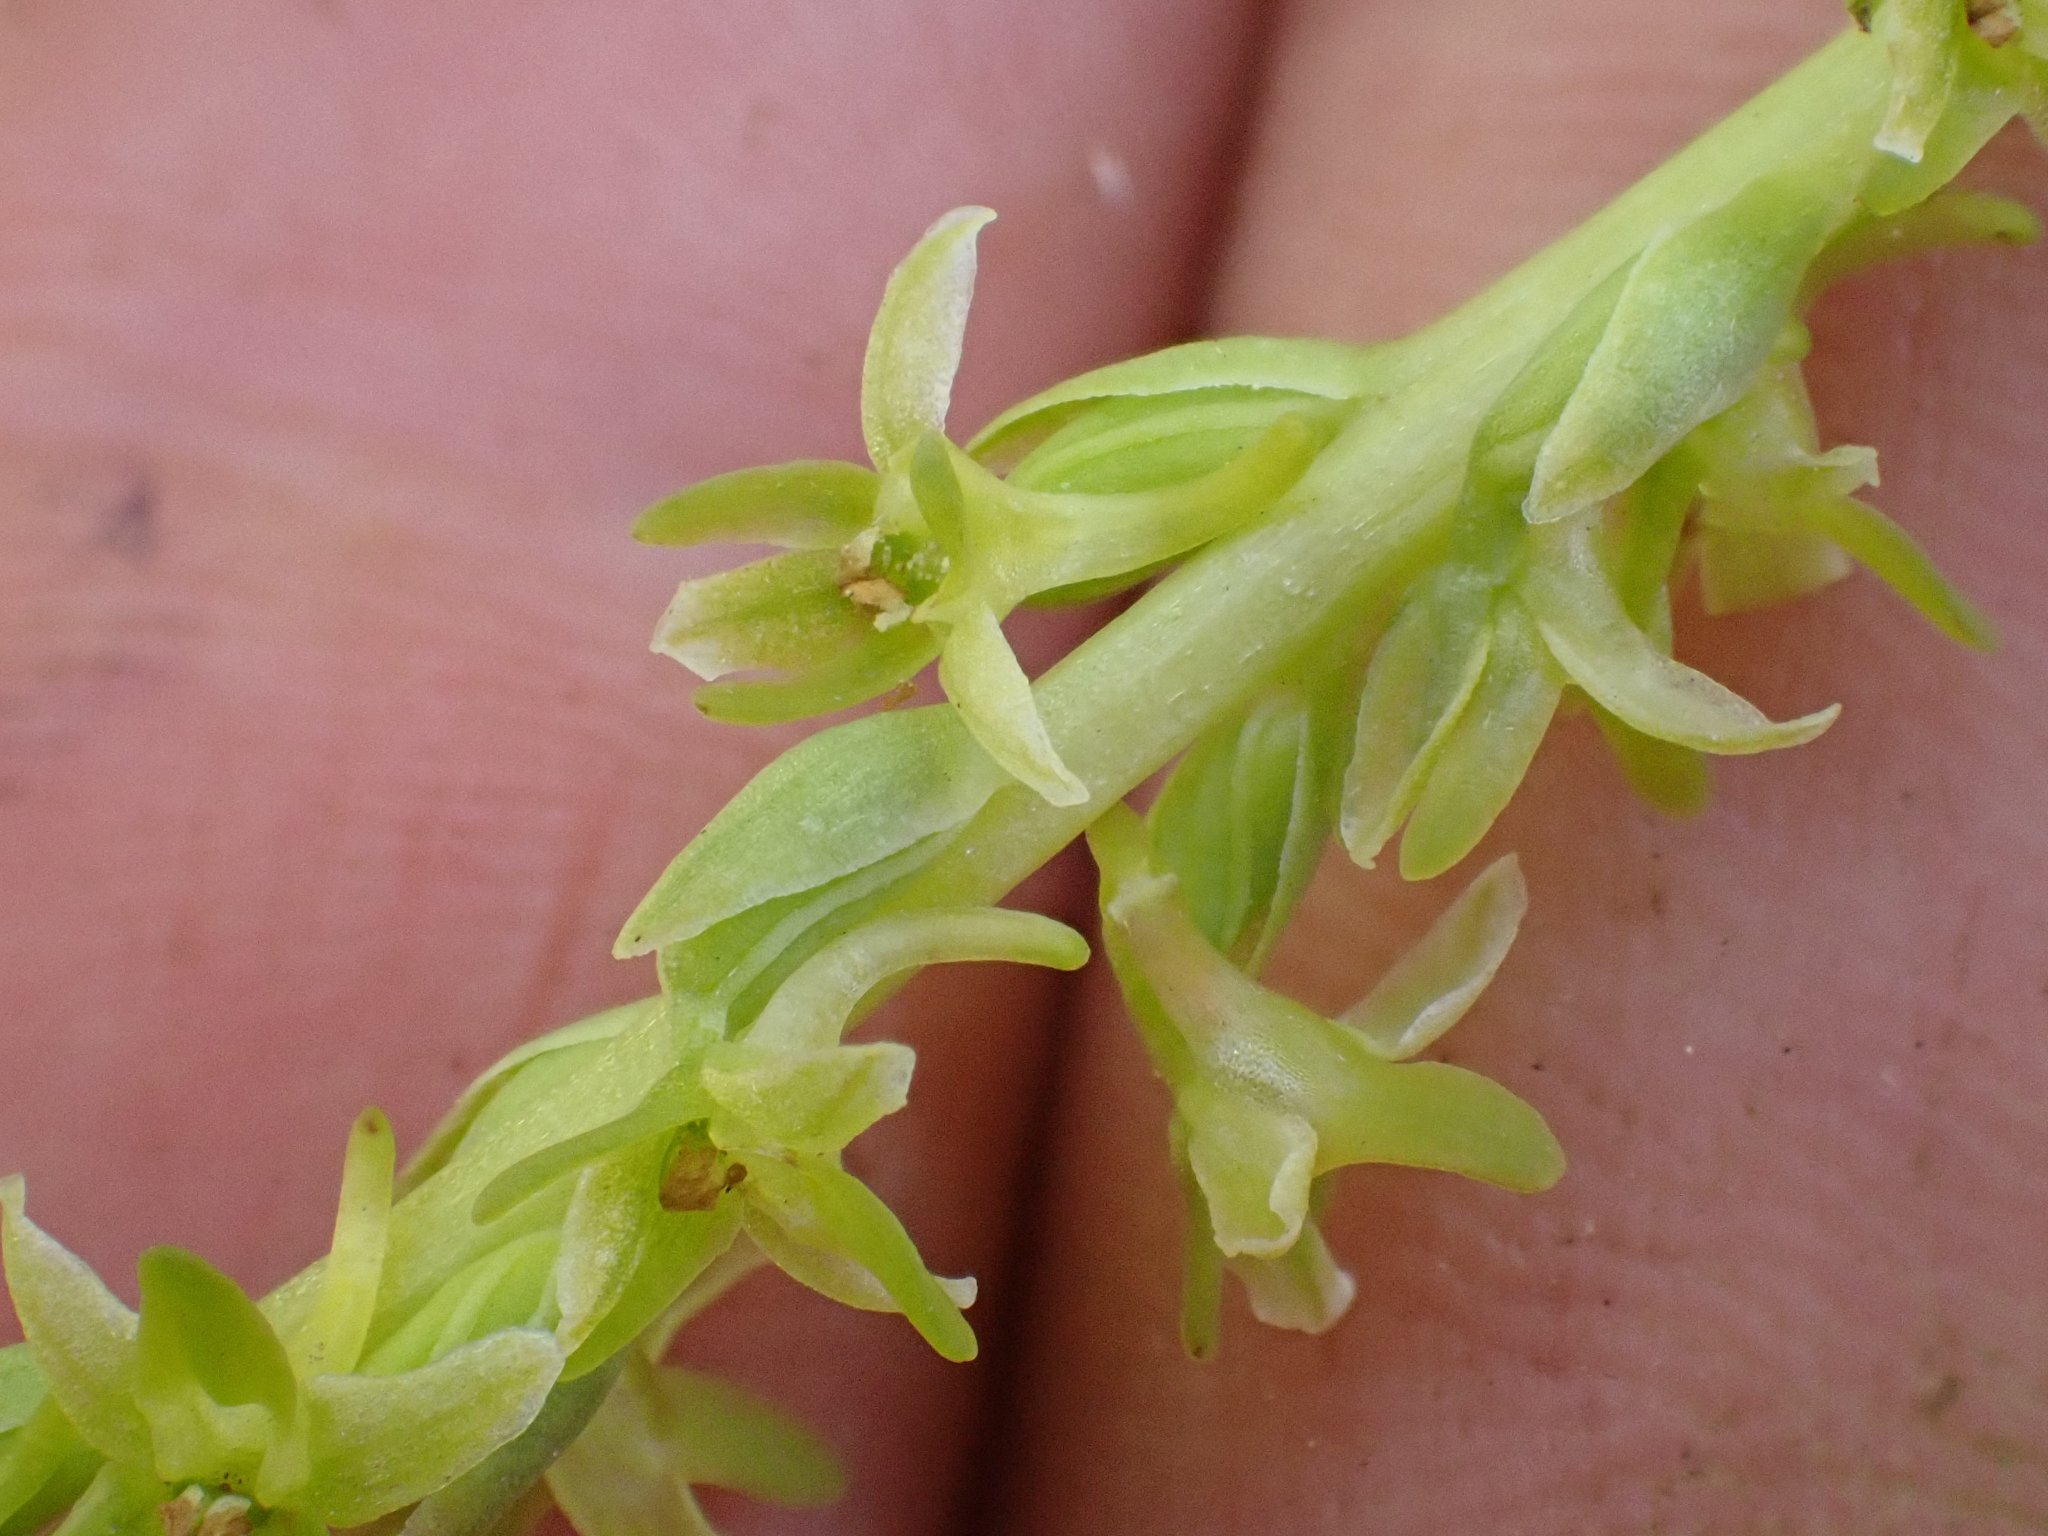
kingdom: Plantae
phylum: Tracheophyta
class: Liliopsida
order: Asparagales
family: Orchidaceae
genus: Platanthera
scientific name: Platanthera unalascensis
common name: Alaska bog orchid
